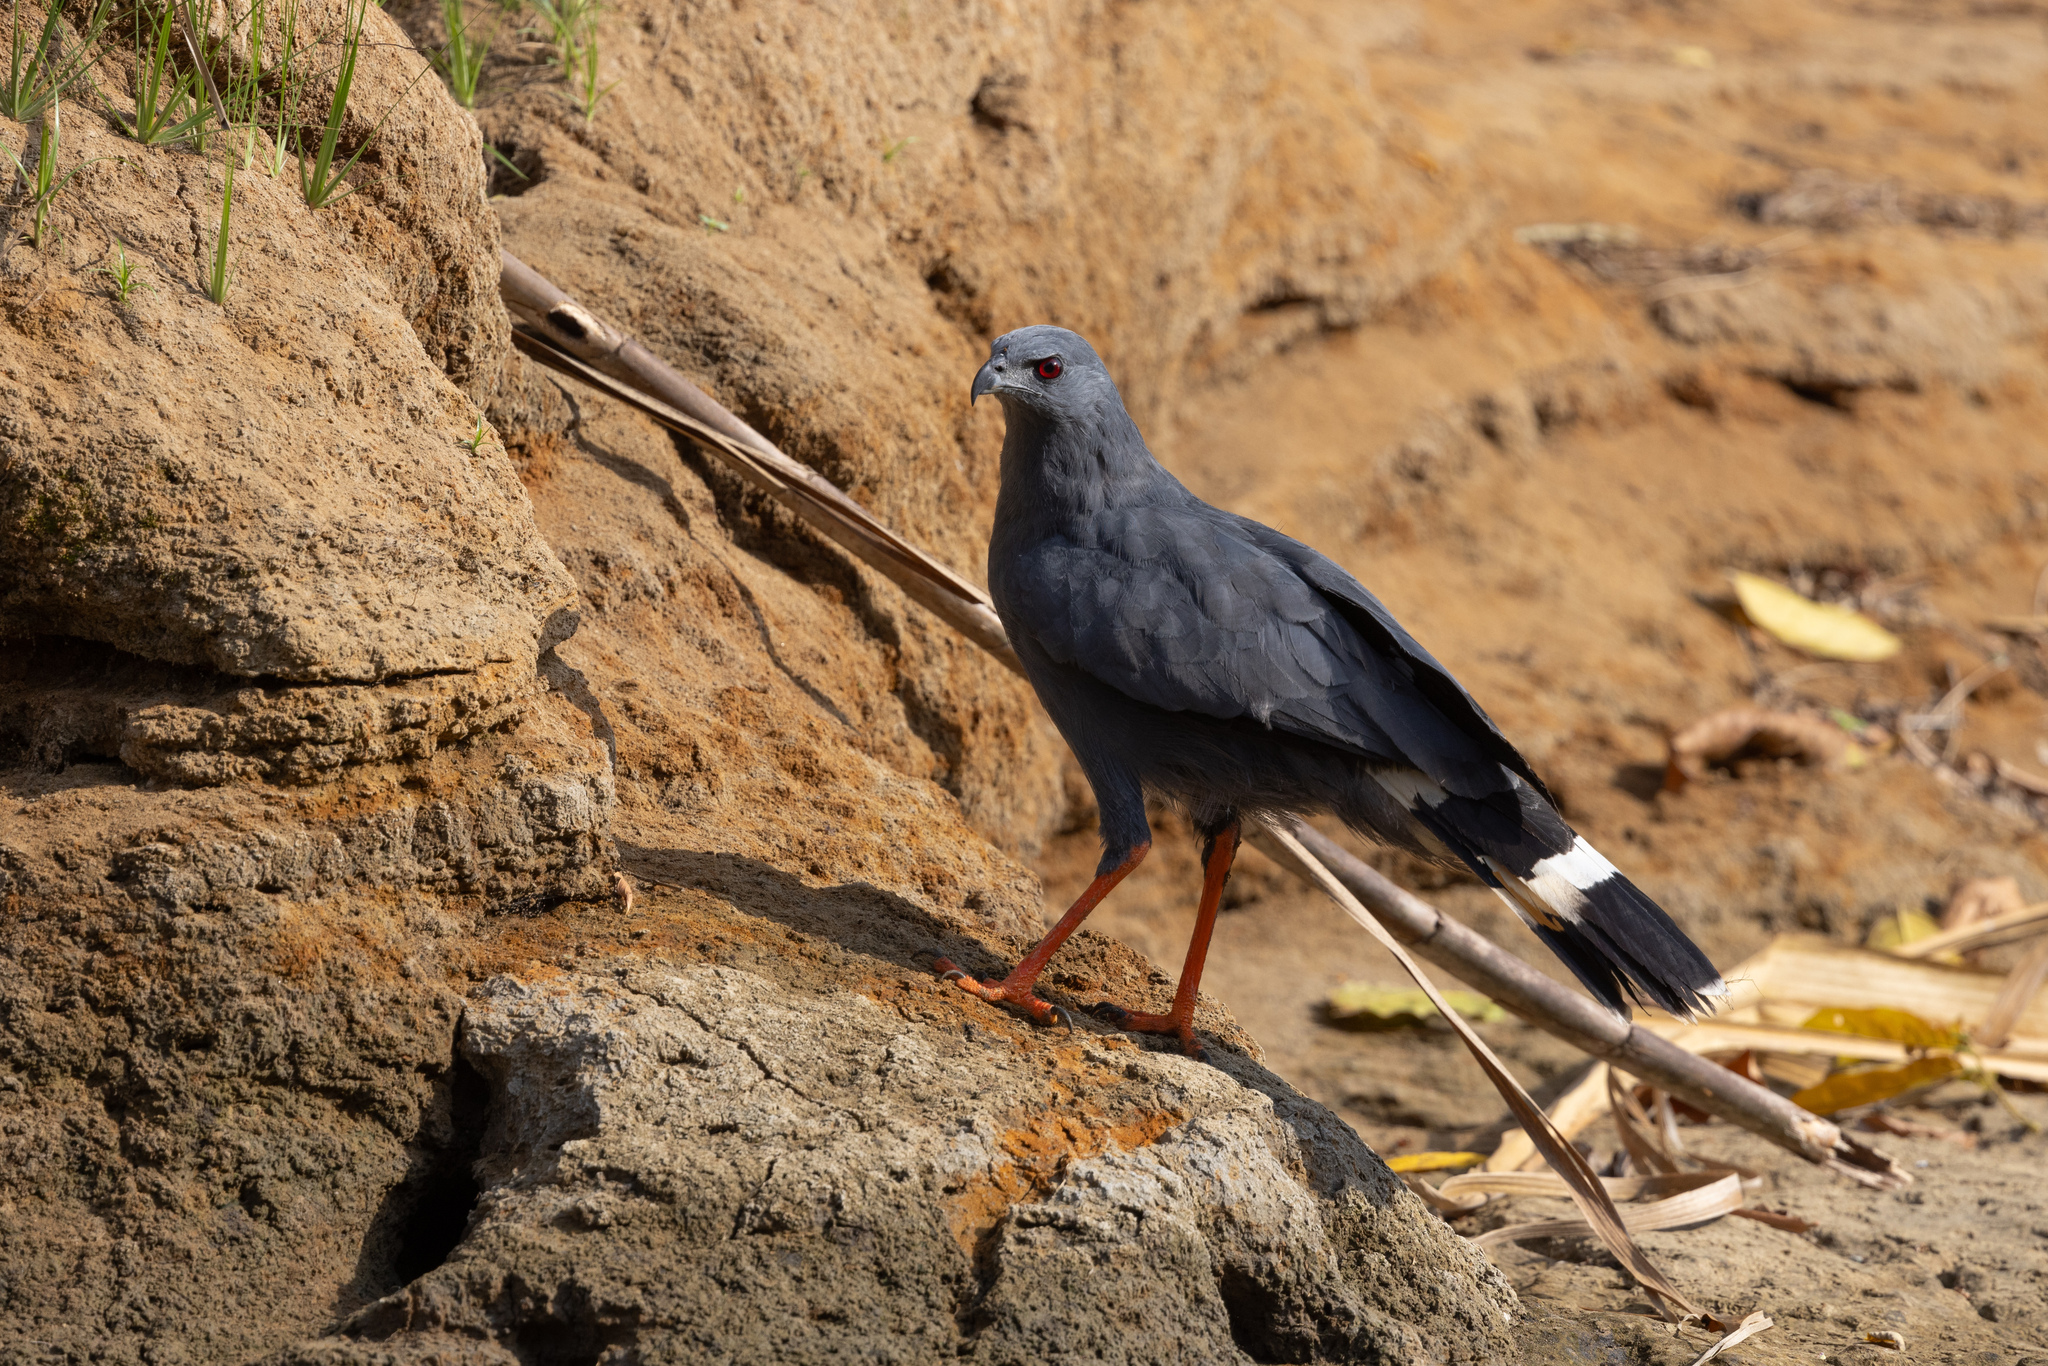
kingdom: Animalia
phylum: Chordata
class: Aves
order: Accipitriformes
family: Accipitridae
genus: Geranospiza
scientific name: Geranospiza caerulescens
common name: Crane hawk
